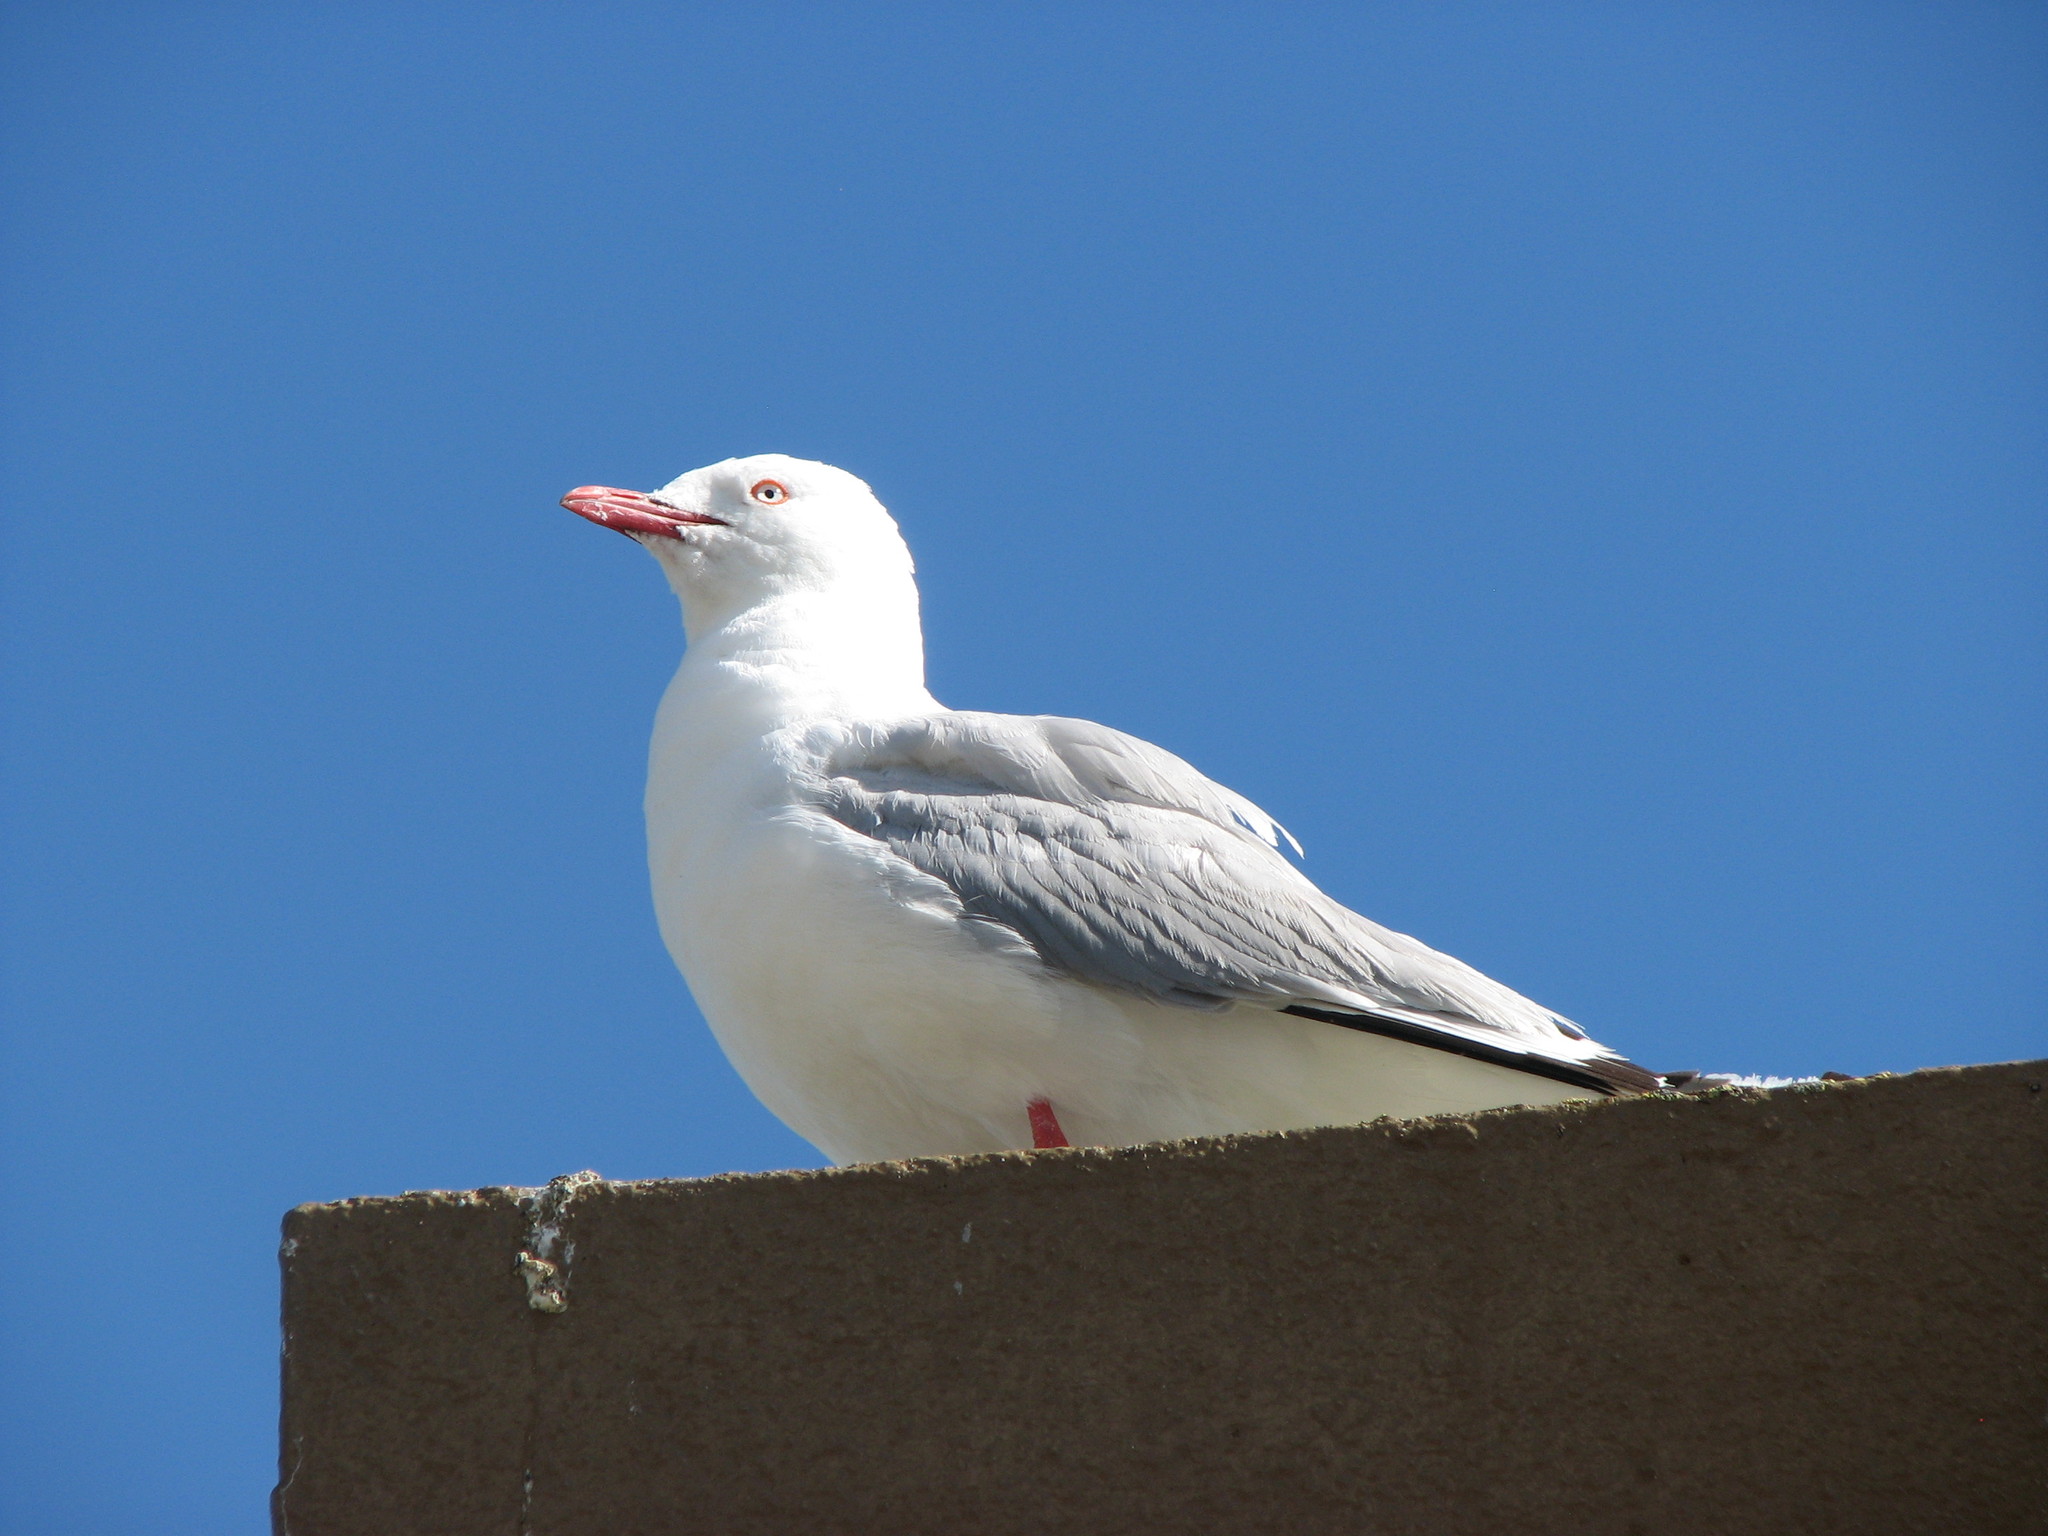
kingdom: Animalia
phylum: Chordata
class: Aves
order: Charadriiformes
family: Laridae
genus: Chroicocephalus
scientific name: Chroicocephalus novaehollandiae
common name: Silver gull
